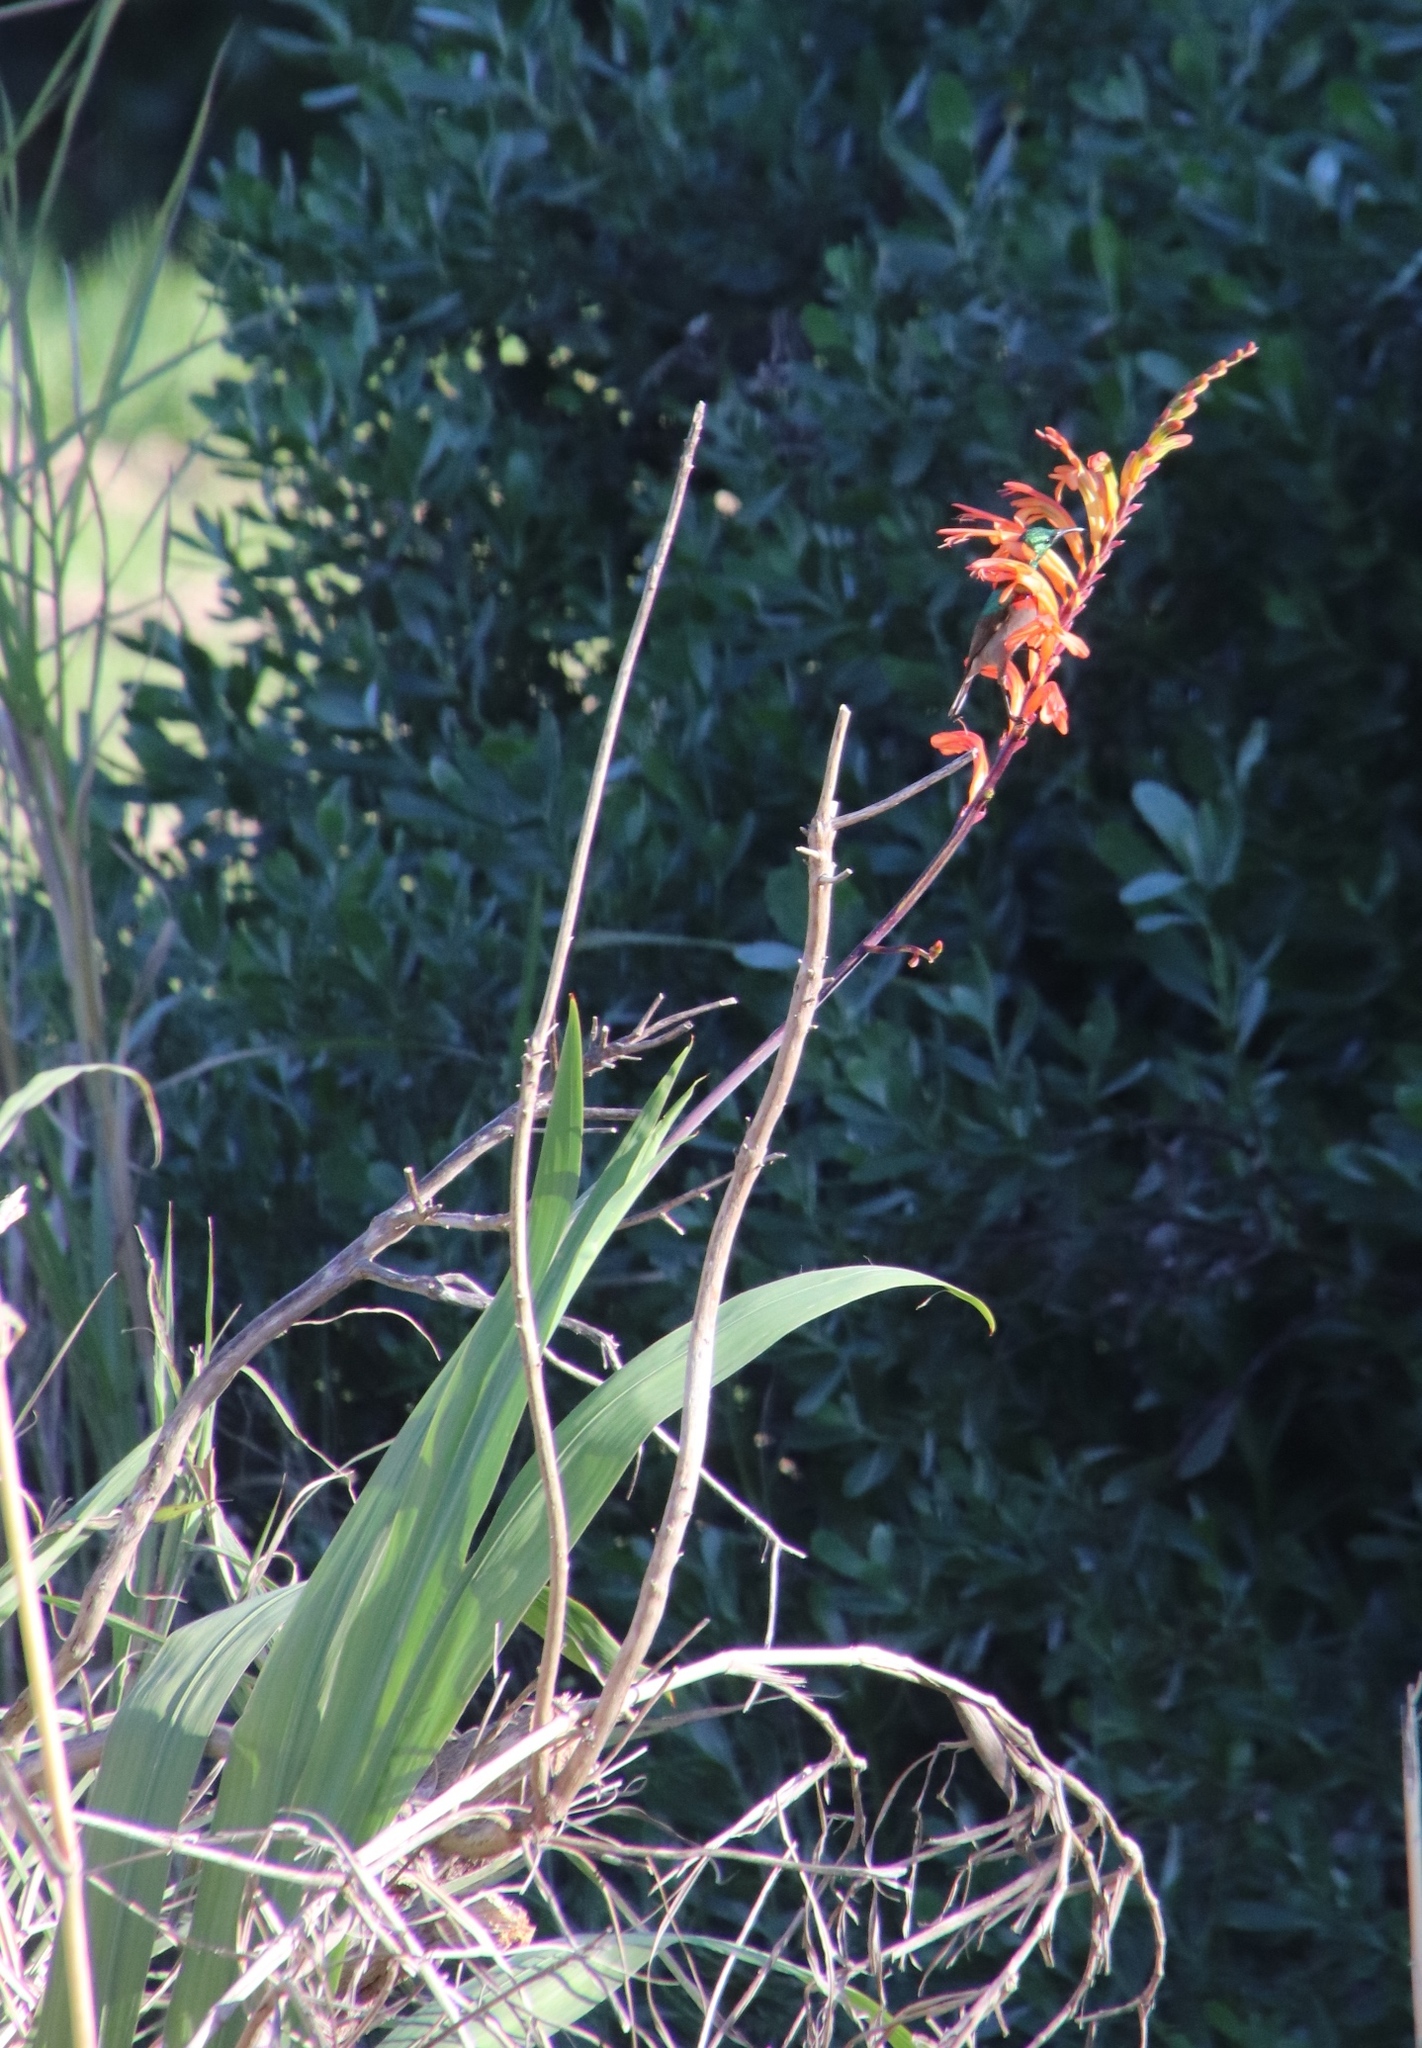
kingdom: Plantae
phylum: Tracheophyta
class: Liliopsida
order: Asparagales
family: Iridaceae
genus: Chasmanthe
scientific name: Chasmanthe floribunda
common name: African cornflag
